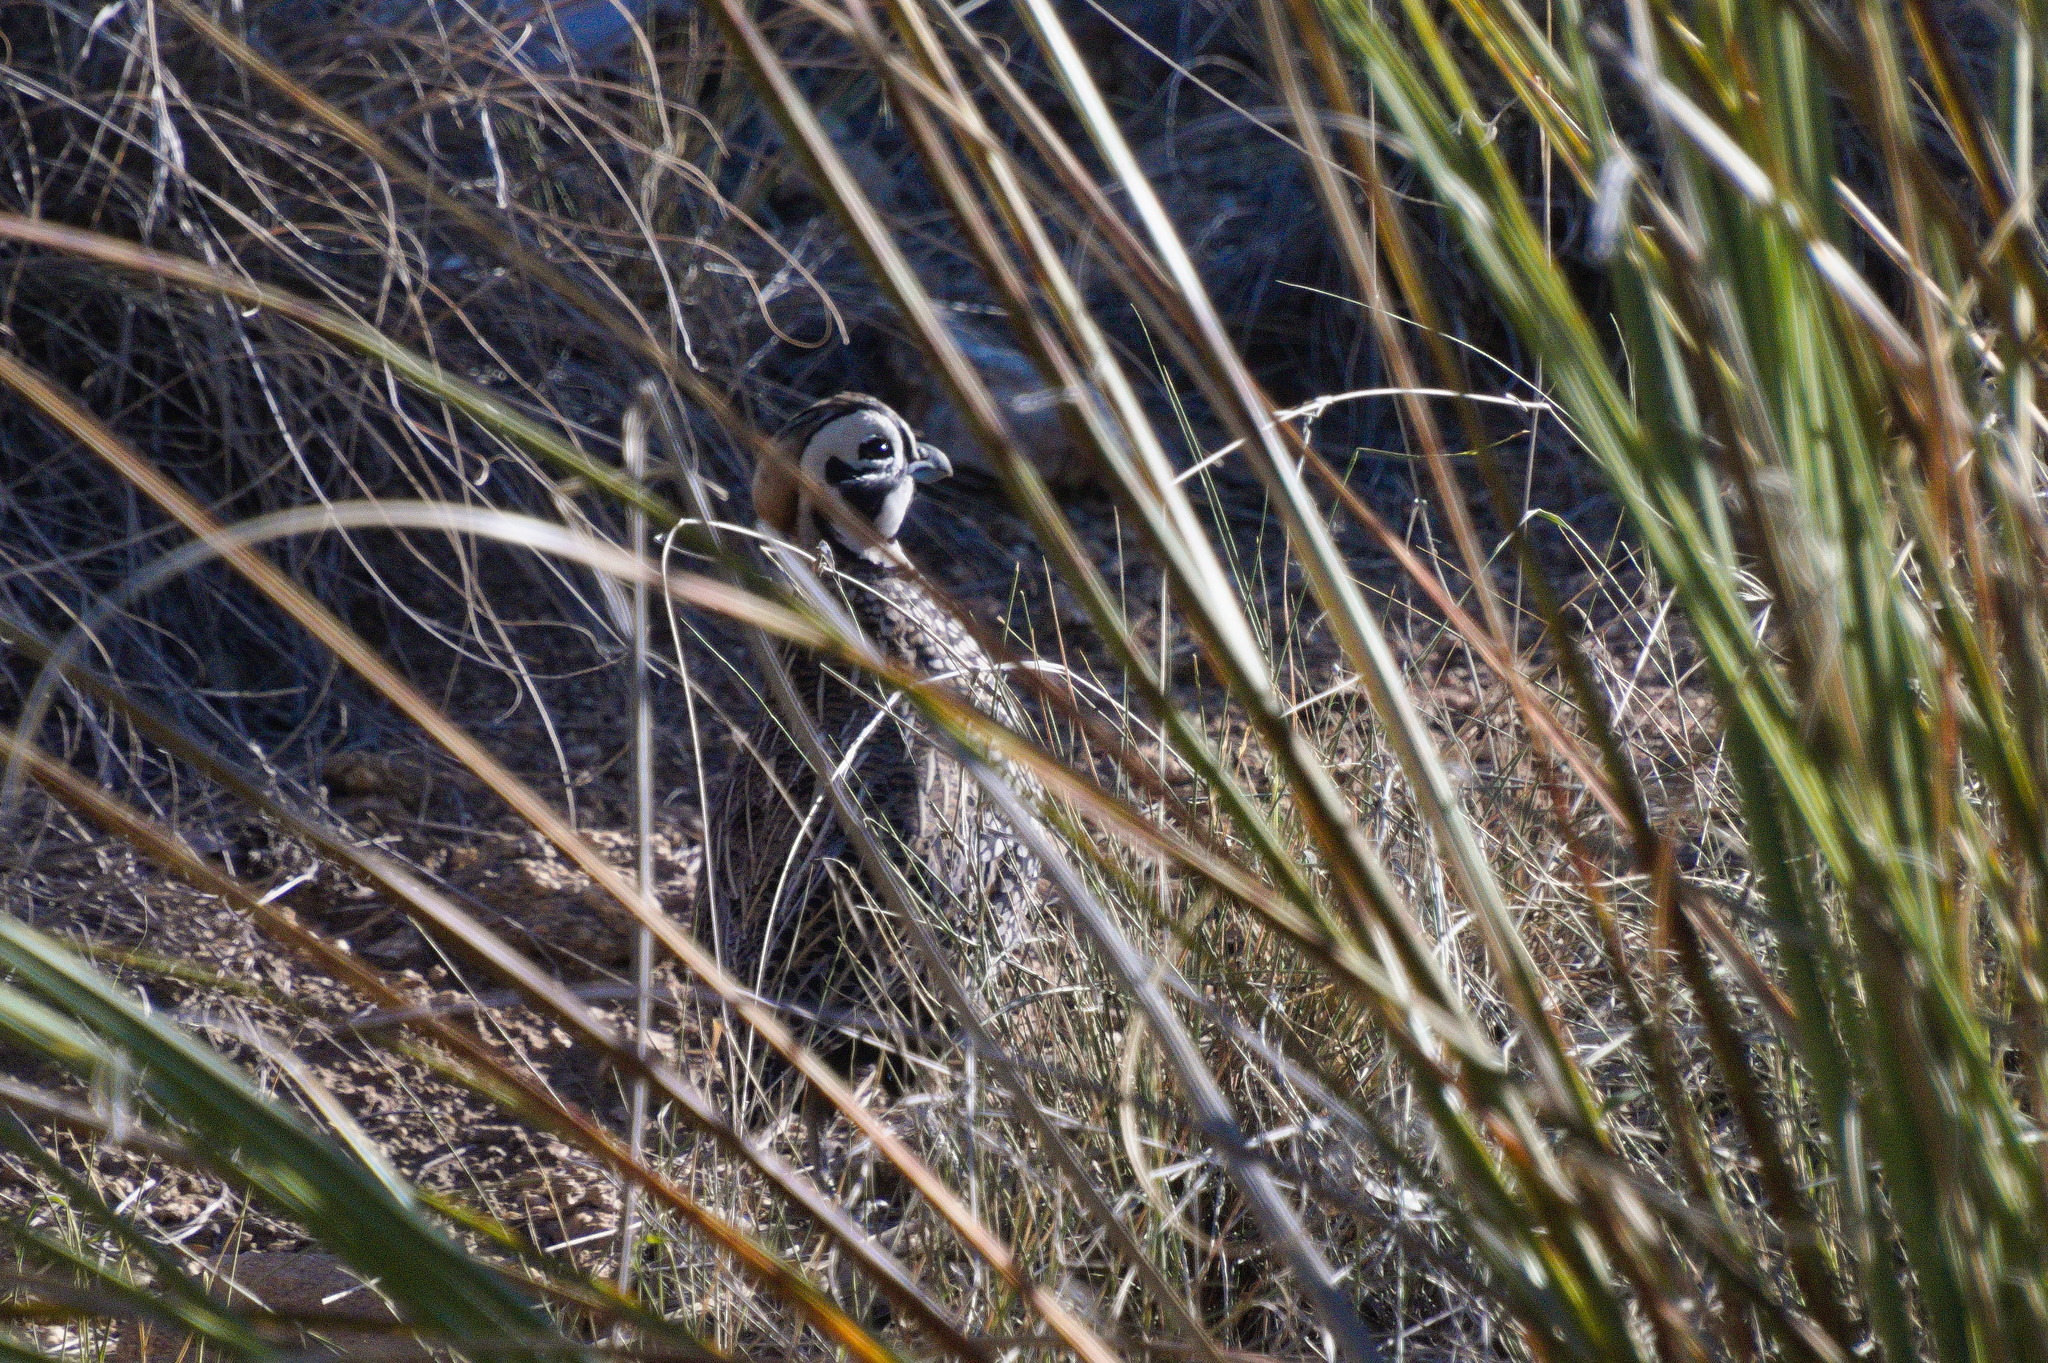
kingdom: Animalia
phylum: Chordata
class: Aves
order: Galliformes
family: Odontophoridae
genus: Cyrtonyx
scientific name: Cyrtonyx montezumae
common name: Montezuma quail
